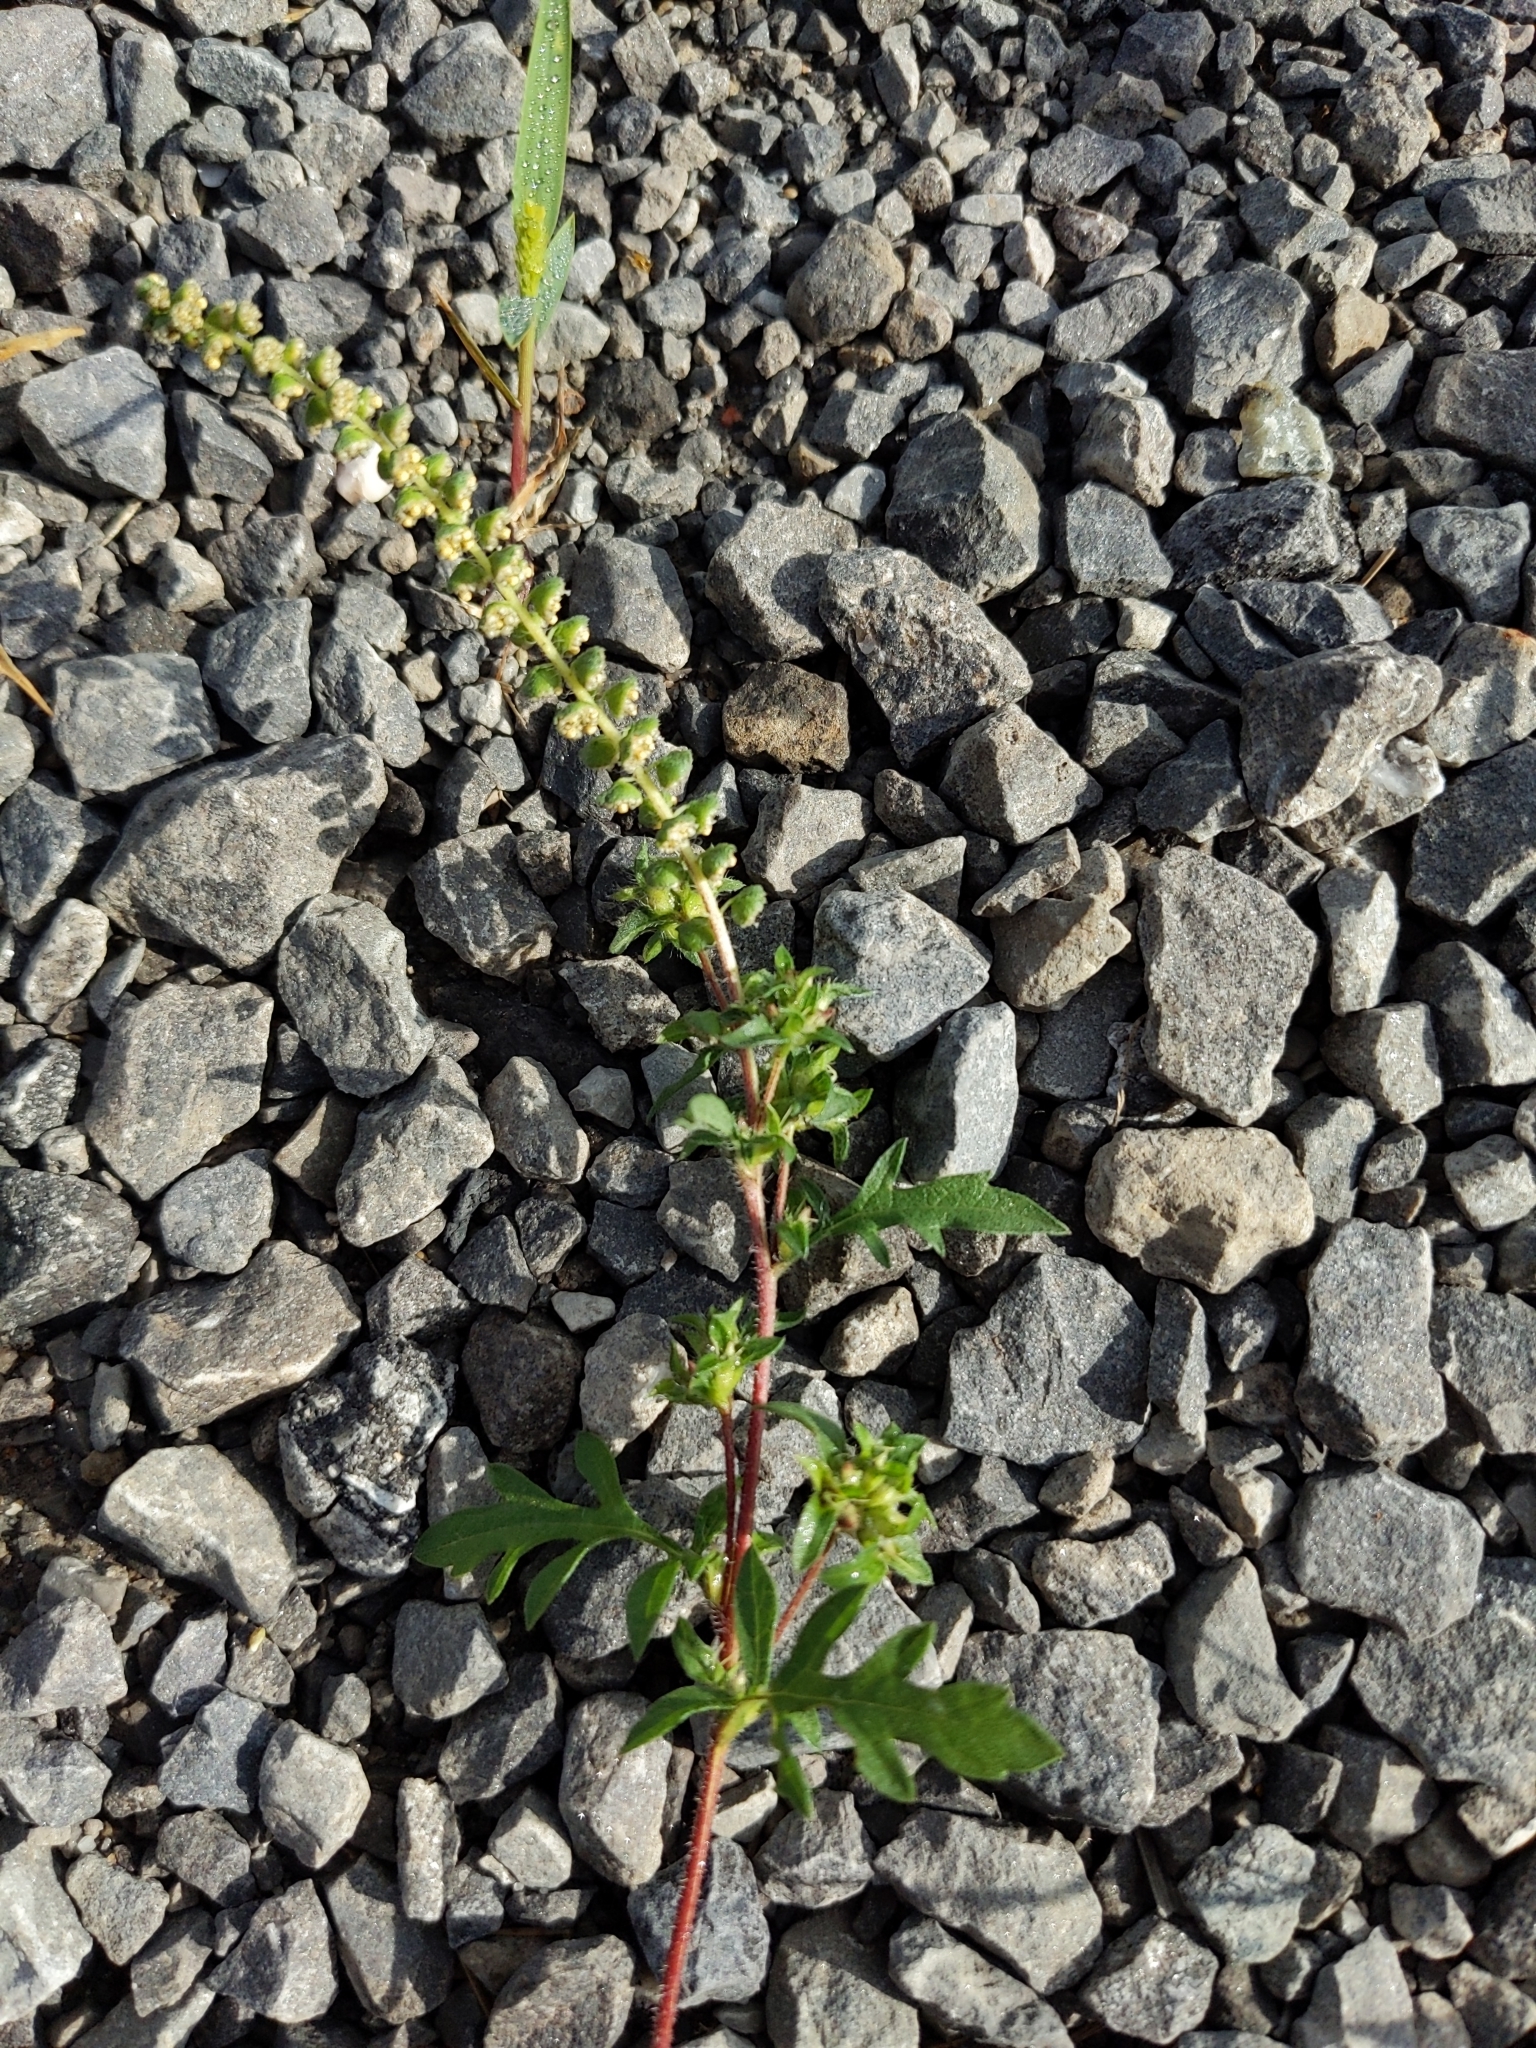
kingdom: Plantae
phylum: Tracheophyta
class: Magnoliopsida
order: Asterales
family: Asteraceae
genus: Ambrosia
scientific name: Ambrosia artemisiifolia
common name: Annual ragweed
